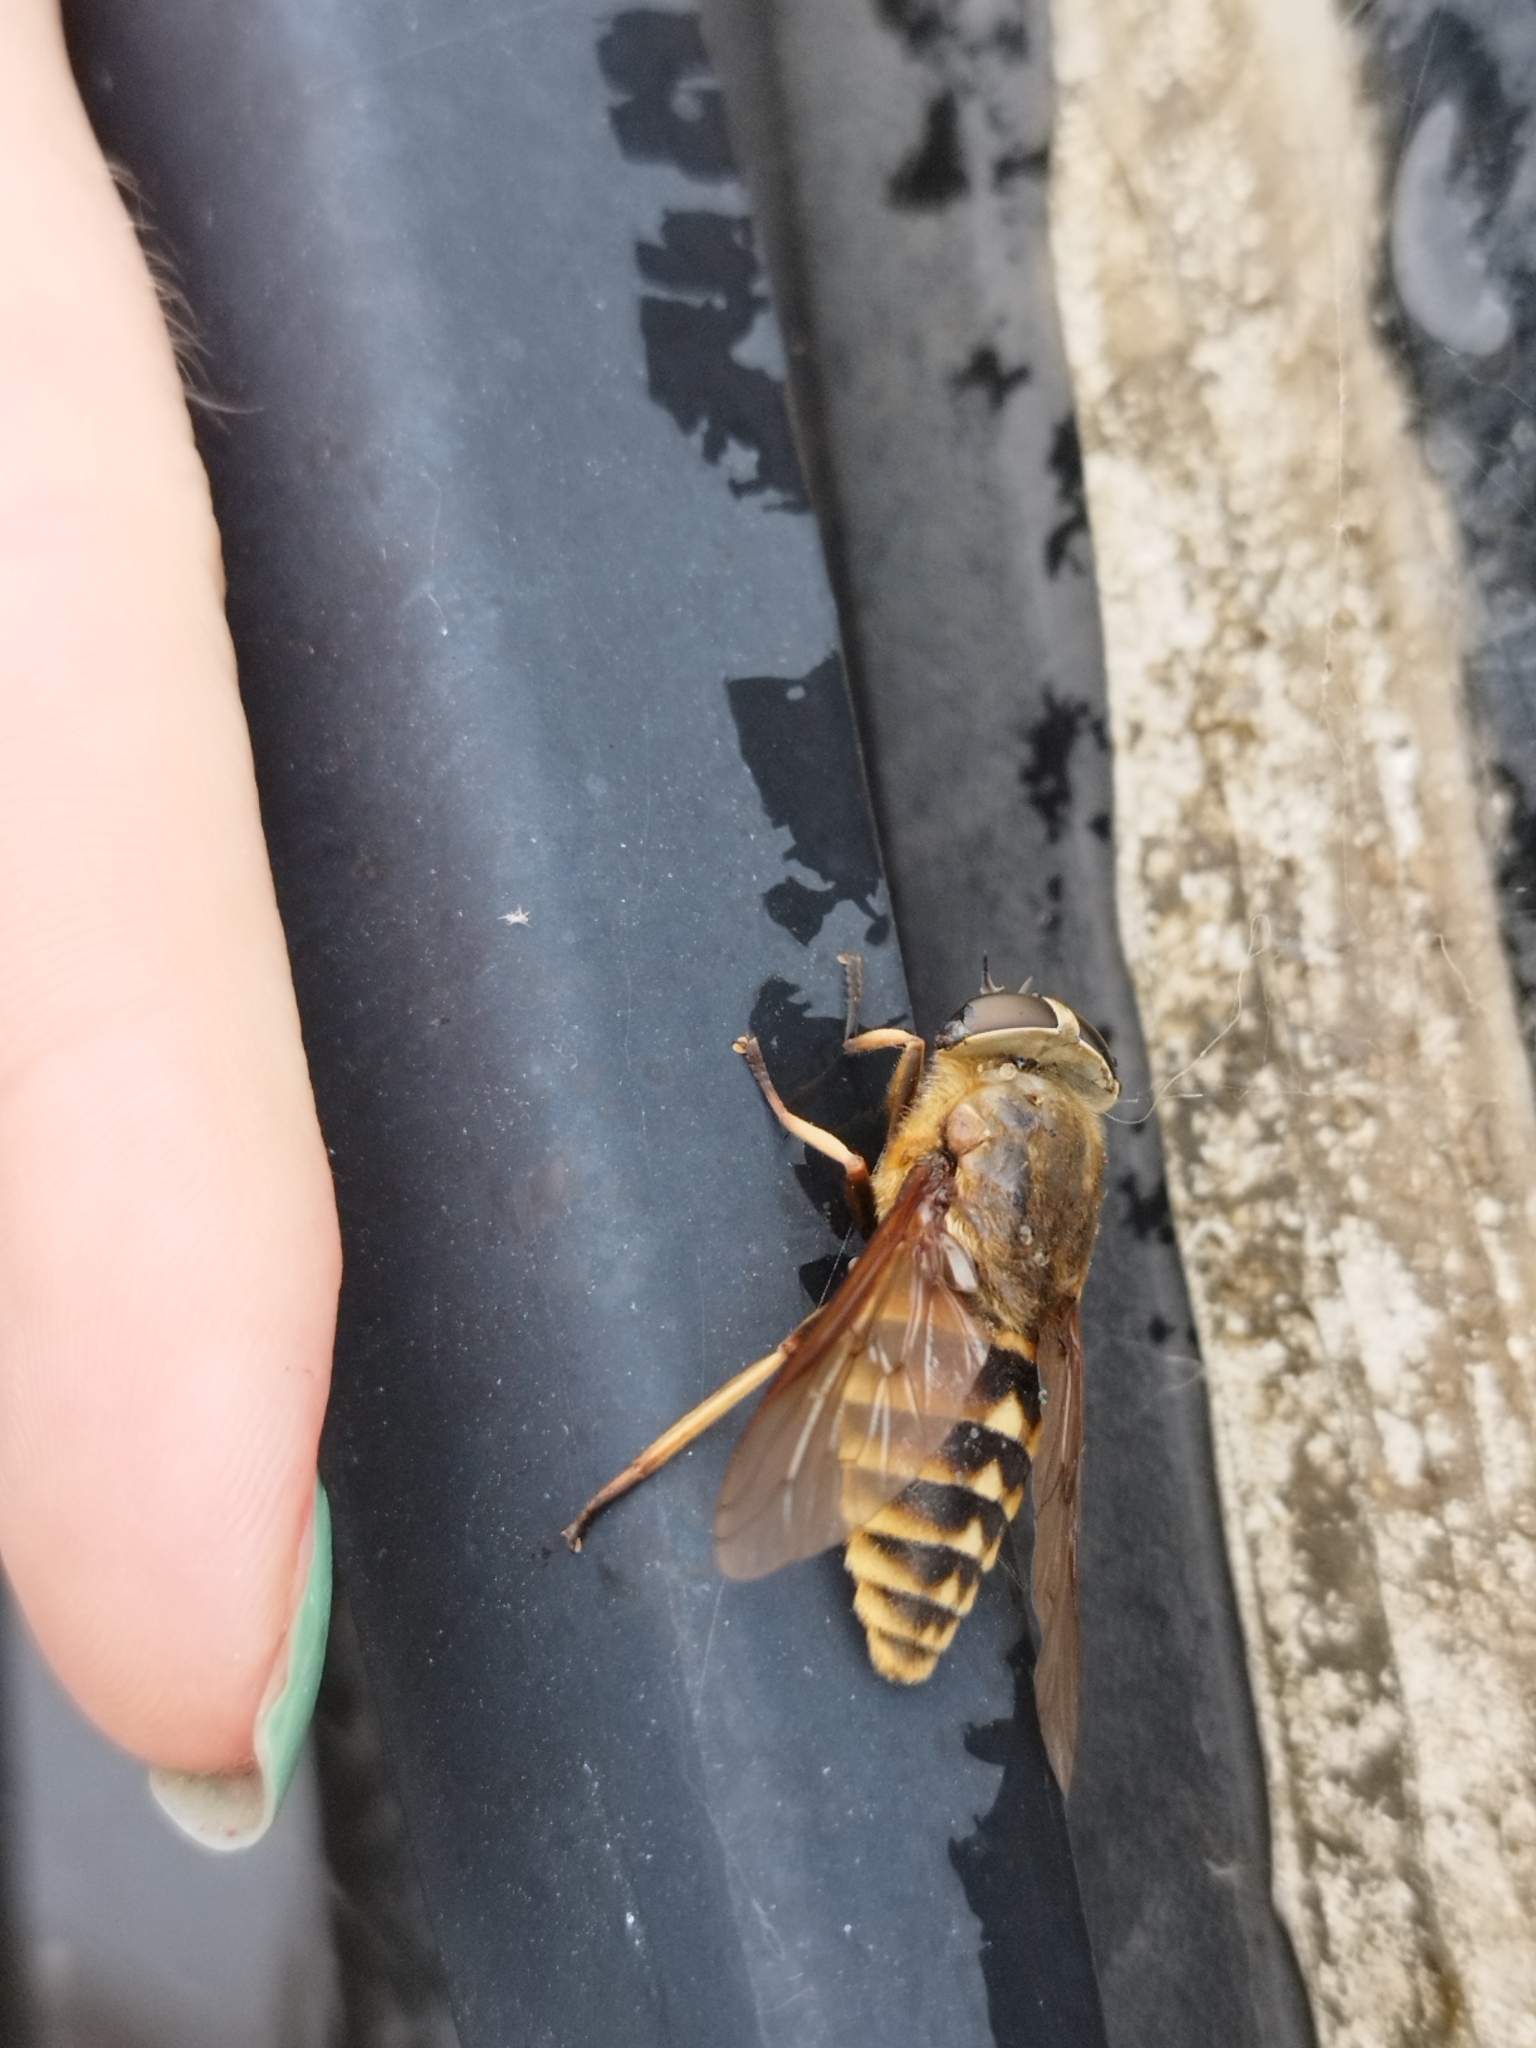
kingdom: Animalia
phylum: Arthropoda
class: Insecta
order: Diptera
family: Tabanidae
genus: Tabanus
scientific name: Tabanus sudeticus
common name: Dark giant horsefly
